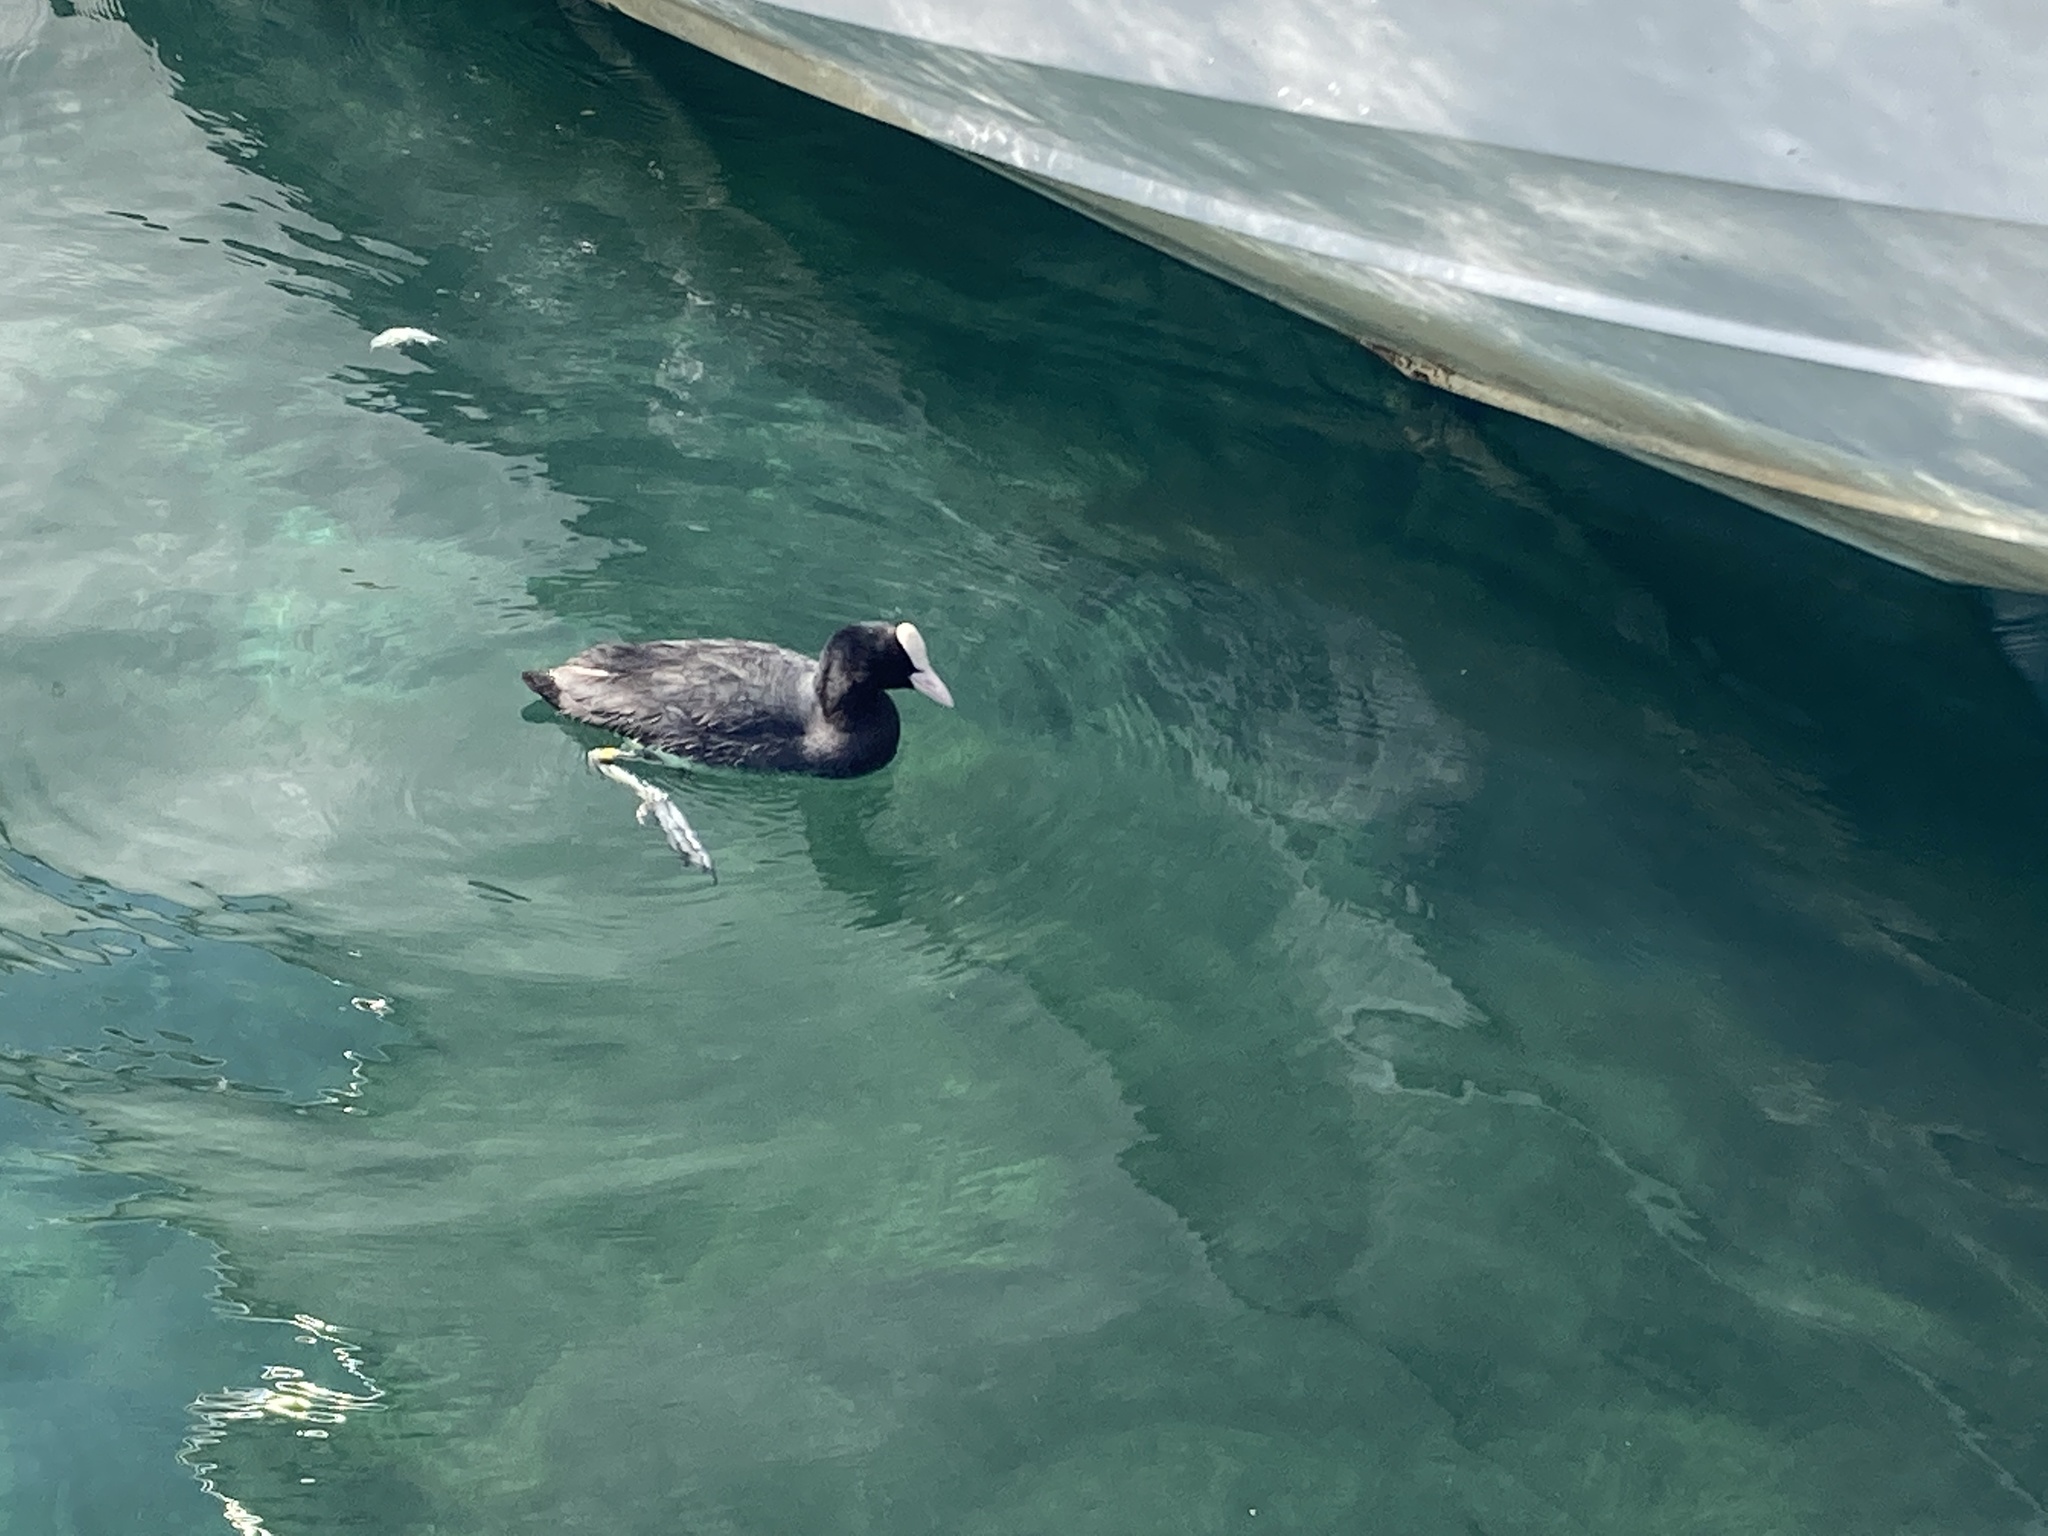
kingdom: Animalia
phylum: Chordata
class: Aves
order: Gruiformes
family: Rallidae
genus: Fulica
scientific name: Fulica atra
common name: Eurasian coot
